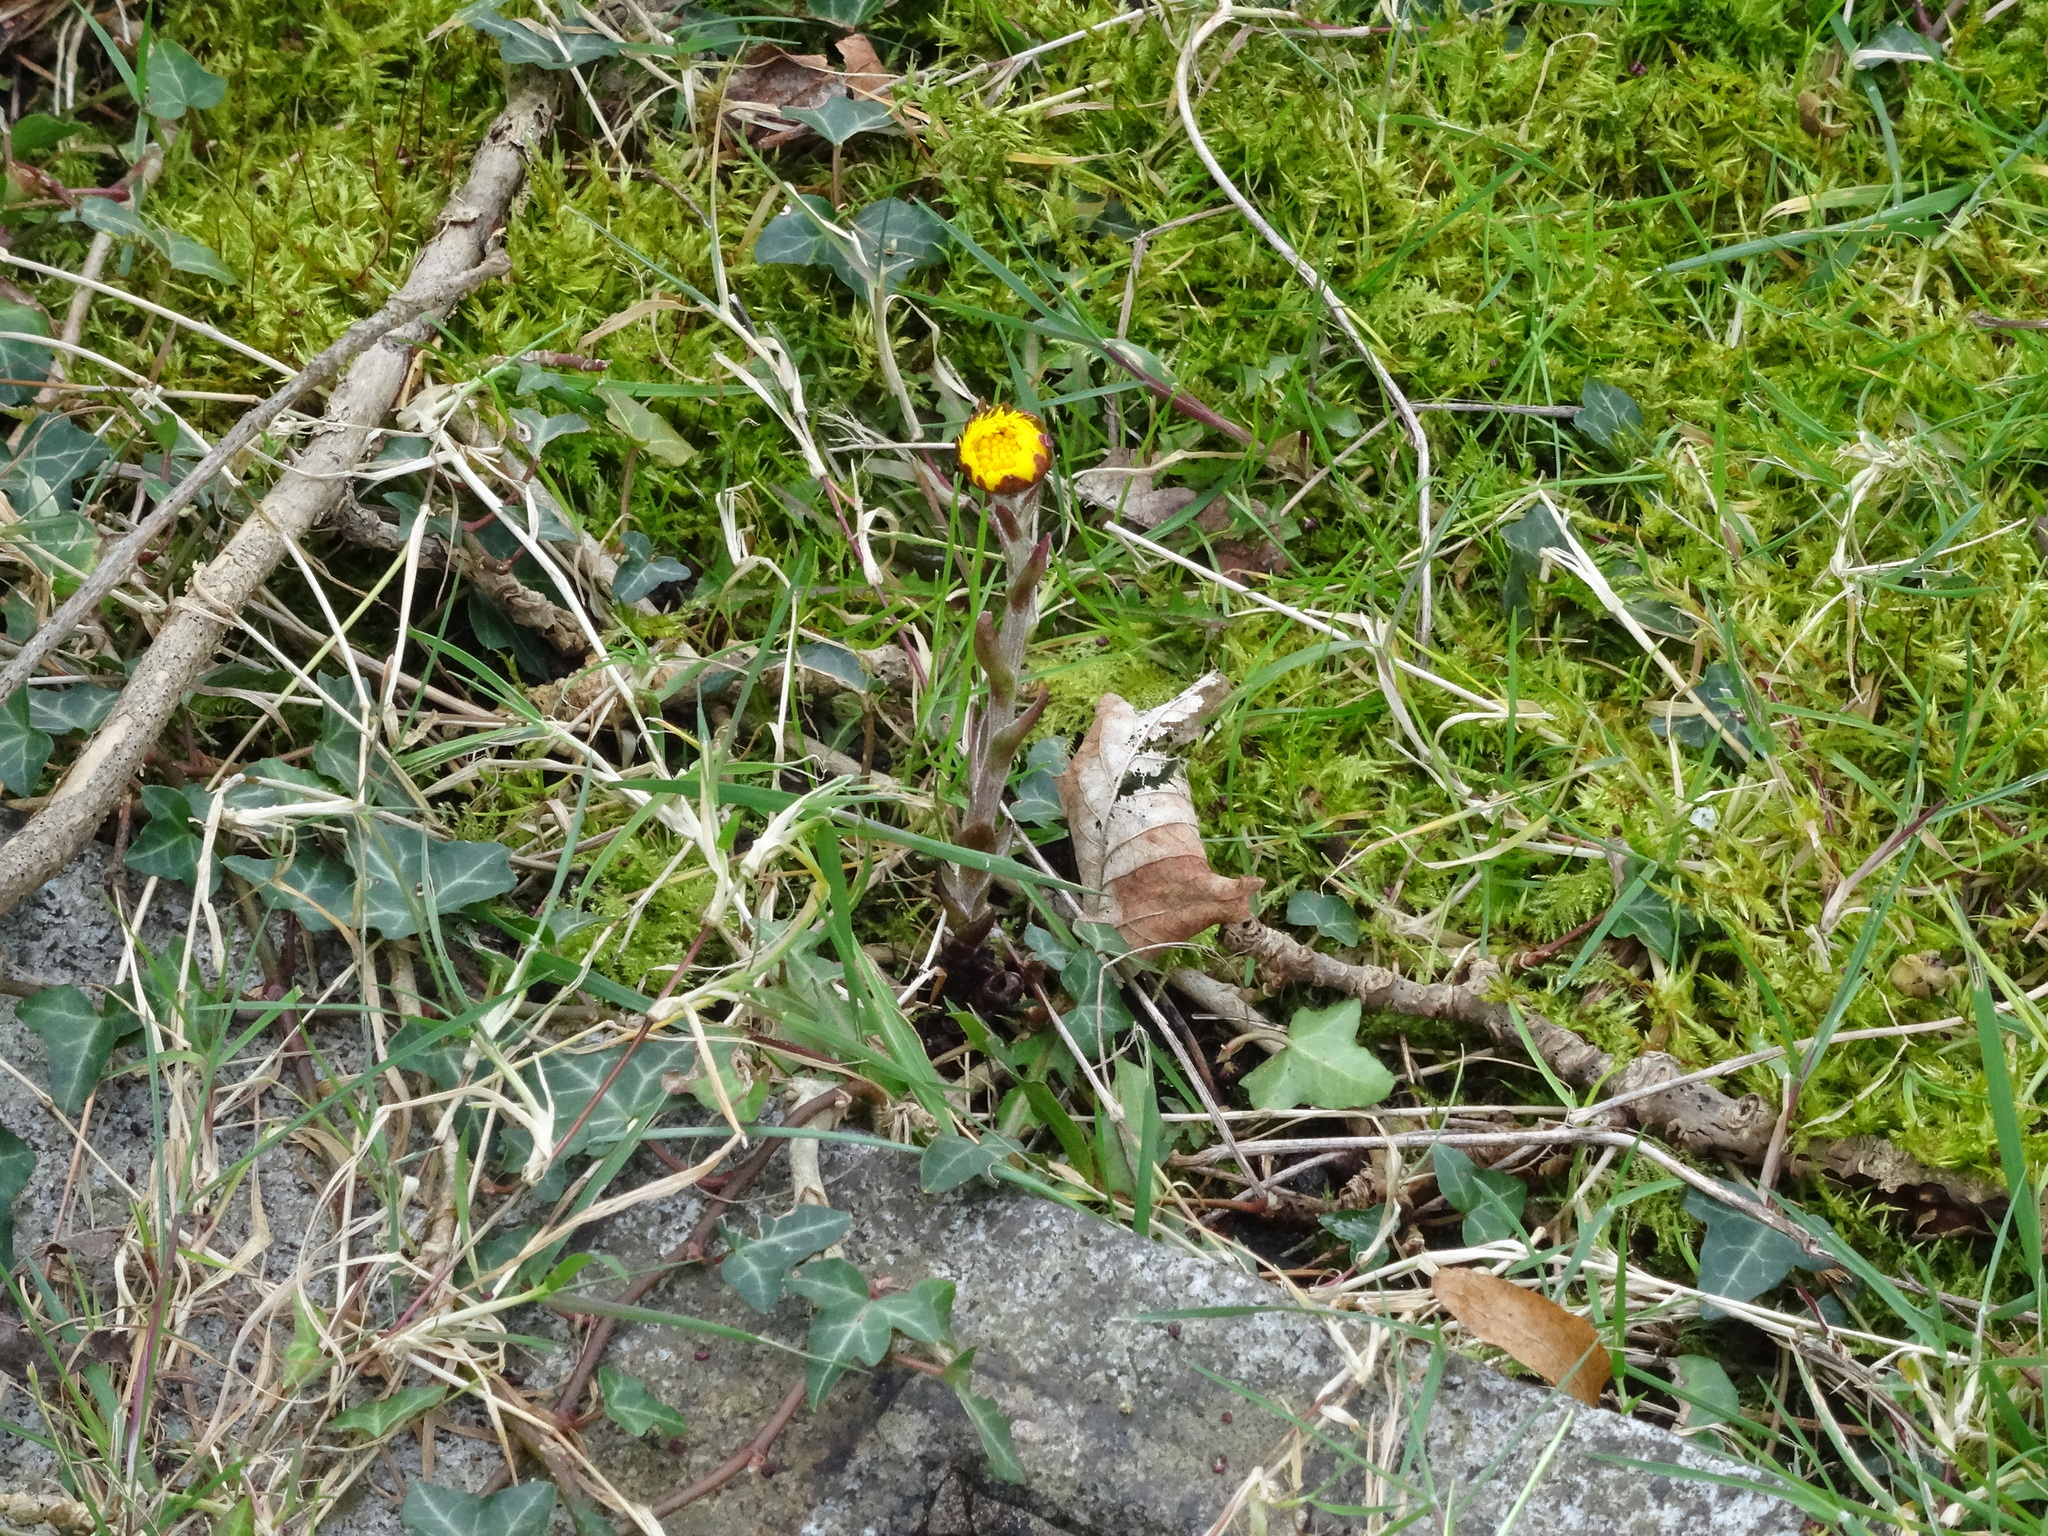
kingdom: Plantae
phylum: Tracheophyta
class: Magnoliopsida
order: Asterales
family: Asteraceae
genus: Tussilago
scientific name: Tussilago farfara
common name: Coltsfoot
